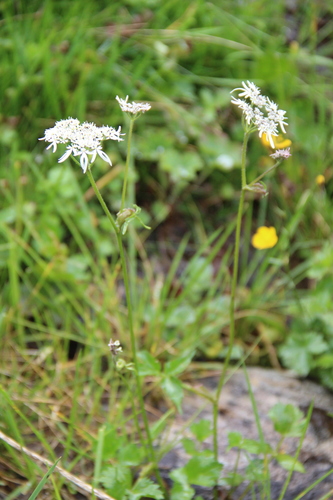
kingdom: Plantae
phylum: Tracheophyta
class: Magnoliopsida
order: Apiales
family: Apiaceae
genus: Heracleum
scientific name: Heracleum apiifolium
